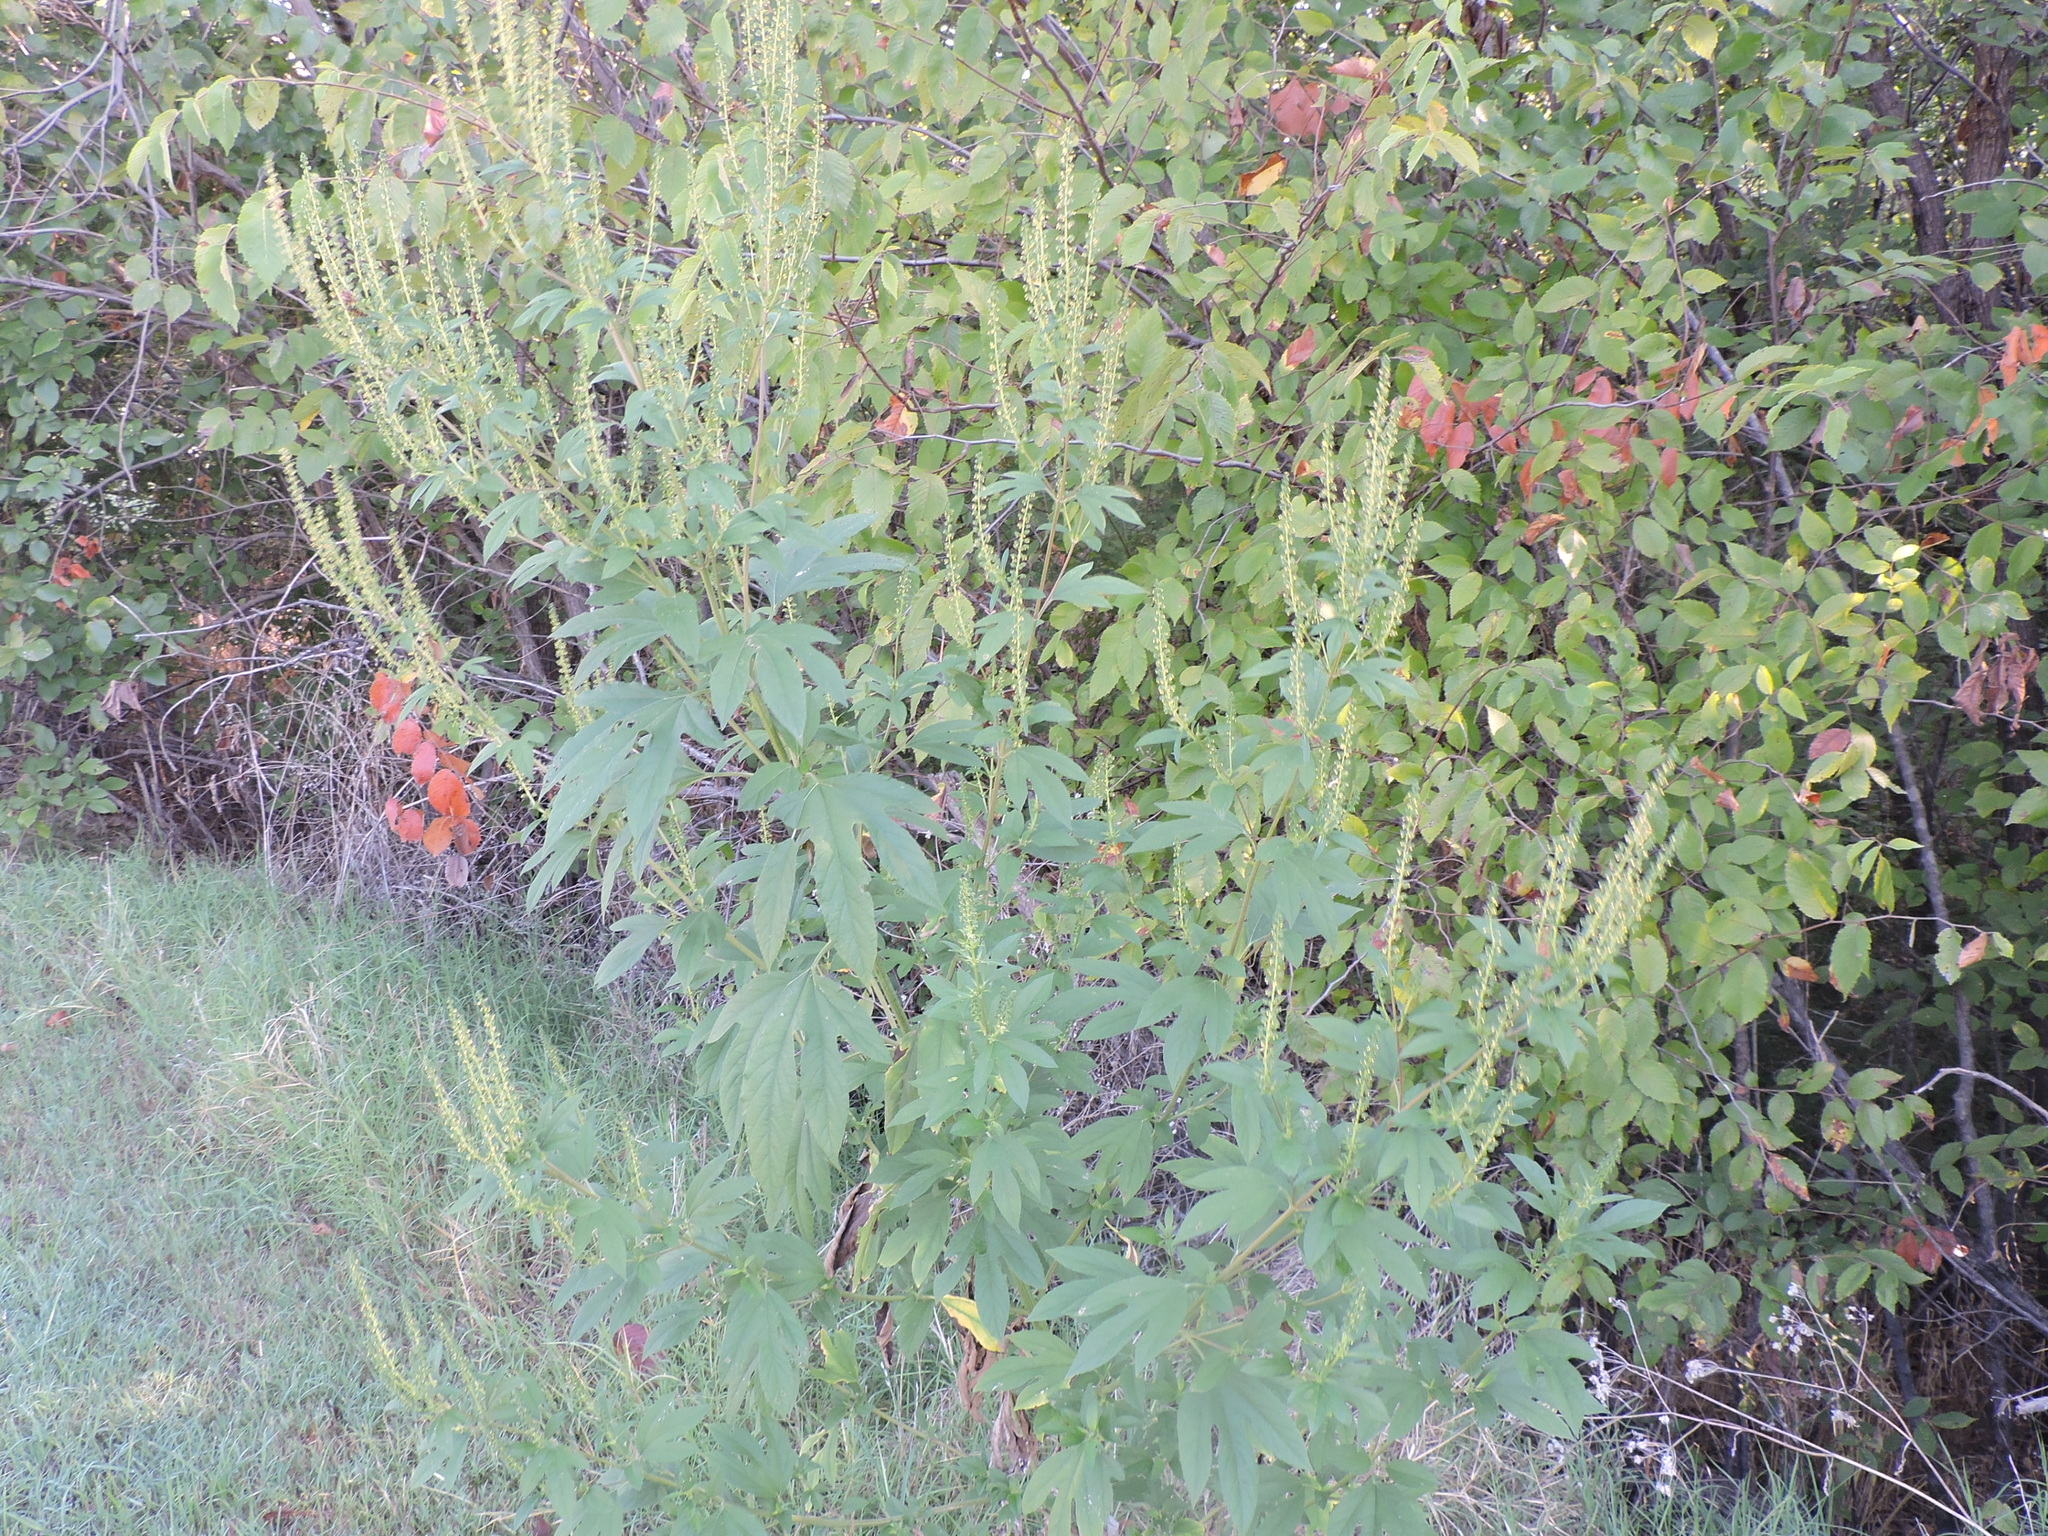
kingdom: Plantae
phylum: Tracheophyta
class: Magnoliopsida
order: Asterales
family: Asteraceae
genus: Ambrosia
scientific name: Ambrosia trifida
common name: Giant ragweed
